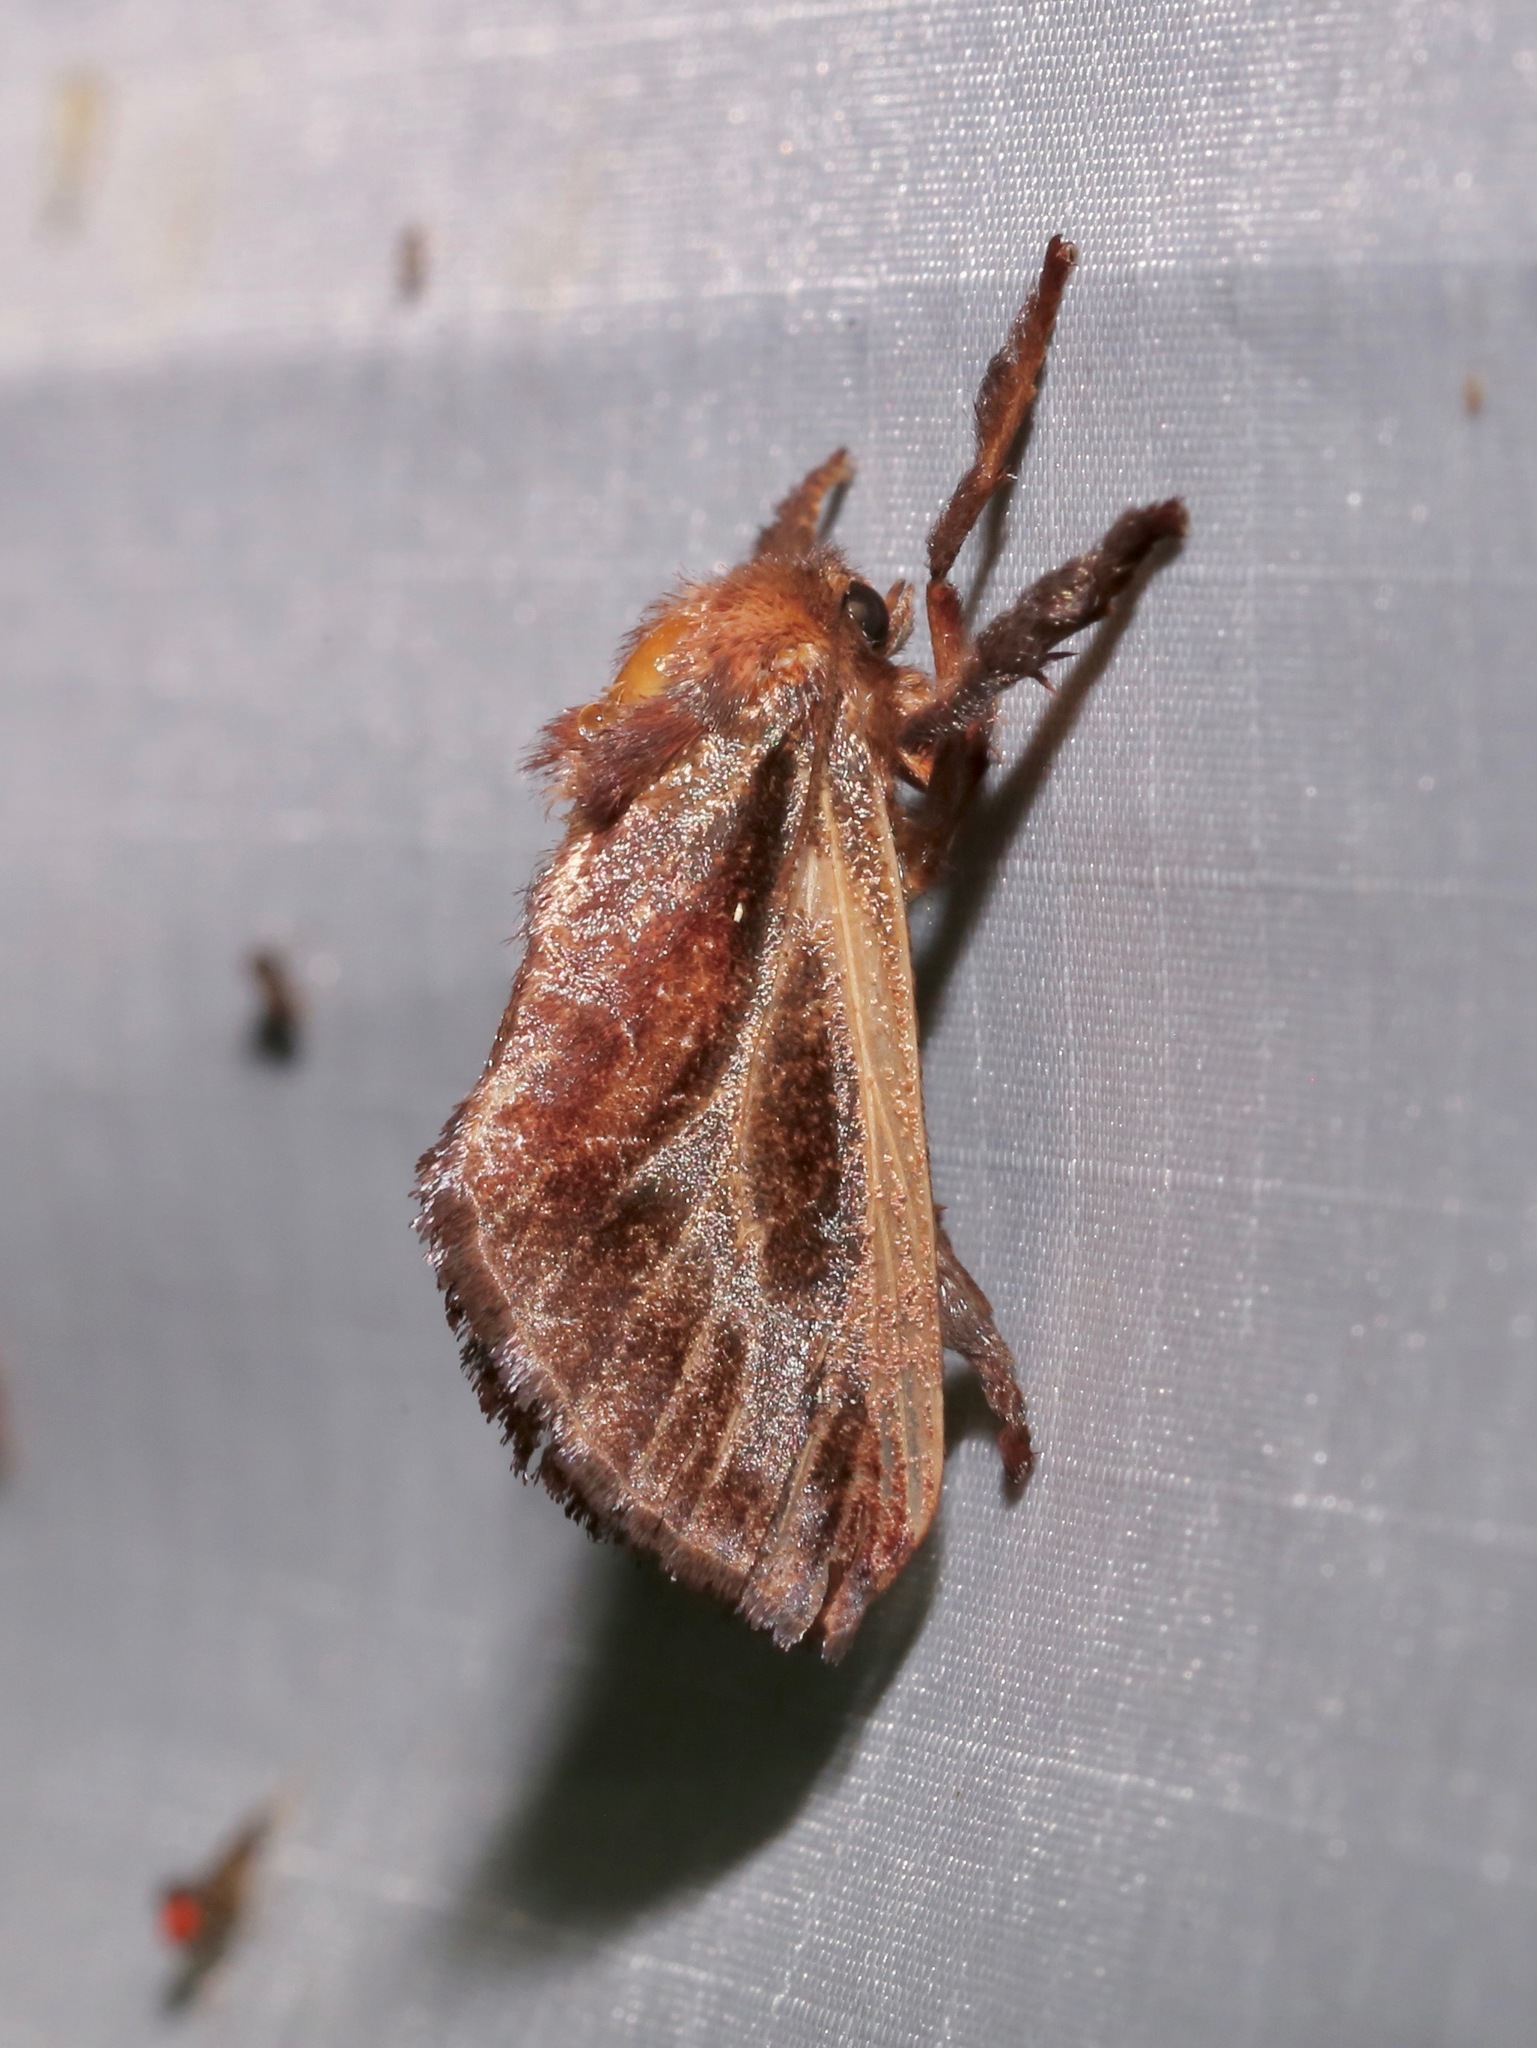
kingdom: Animalia
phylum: Arthropoda
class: Insecta
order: Lepidoptera
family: Limacodidae
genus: Acharia
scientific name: Acharia stimulea
